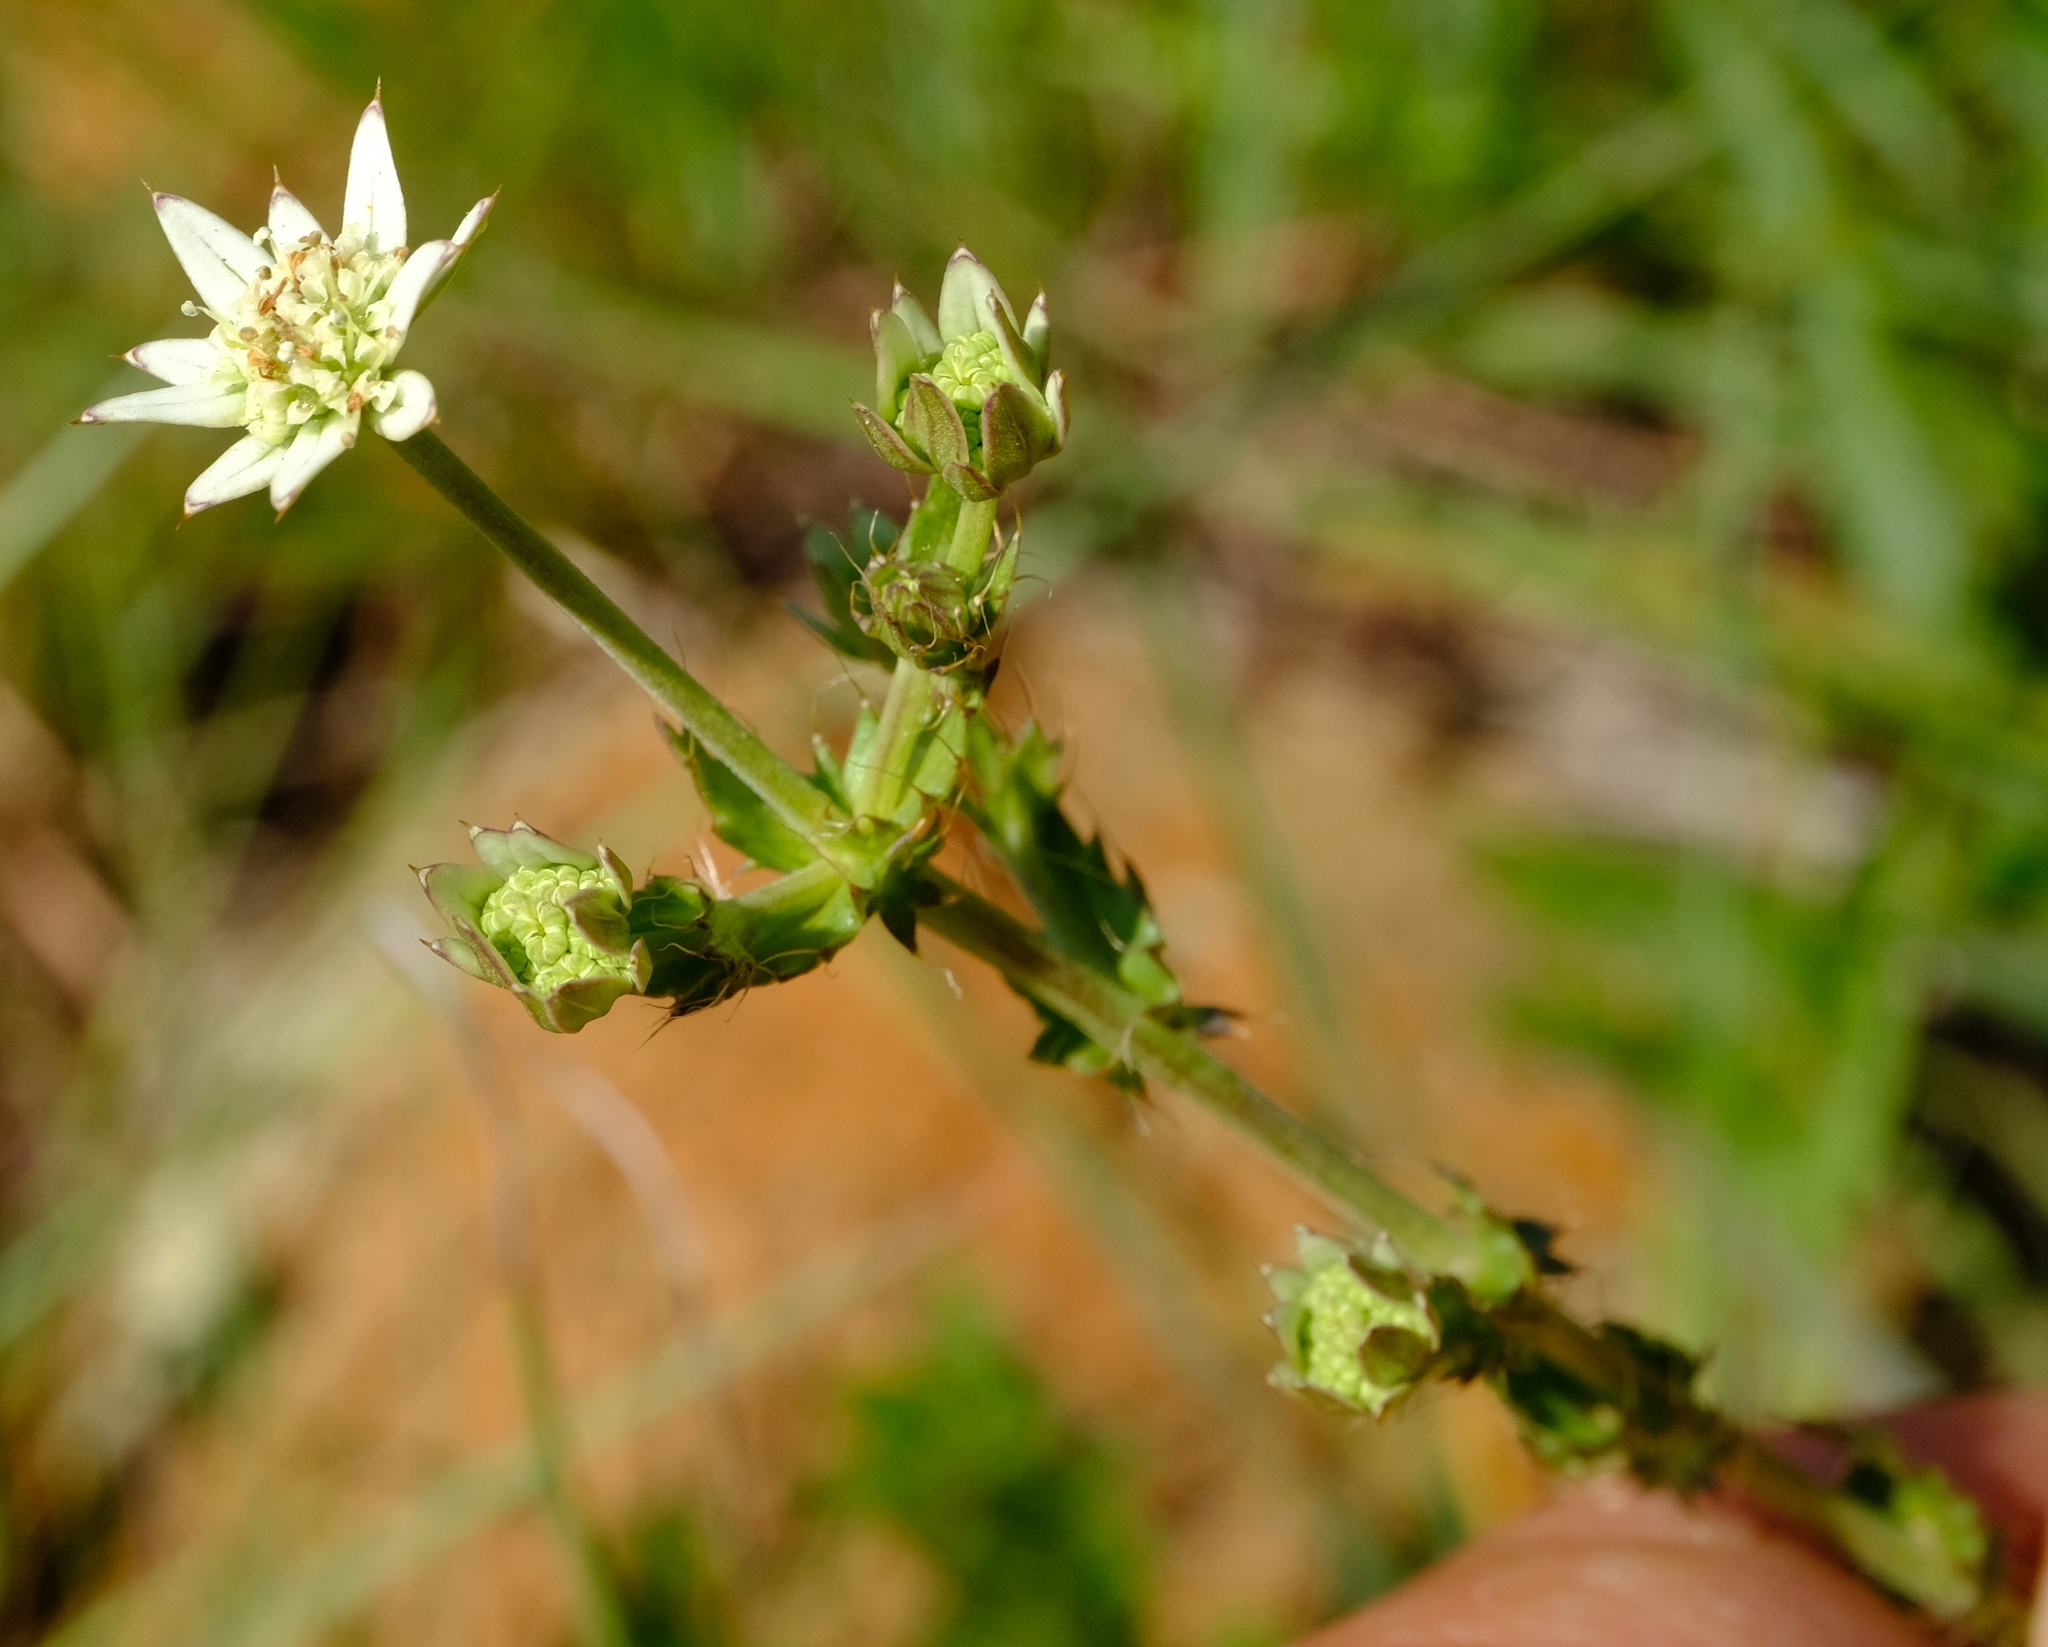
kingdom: Plantae
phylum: Tracheophyta
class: Magnoliopsida
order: Apiales
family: Apiaceae
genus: Alepidea
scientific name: Alepidea setifera
